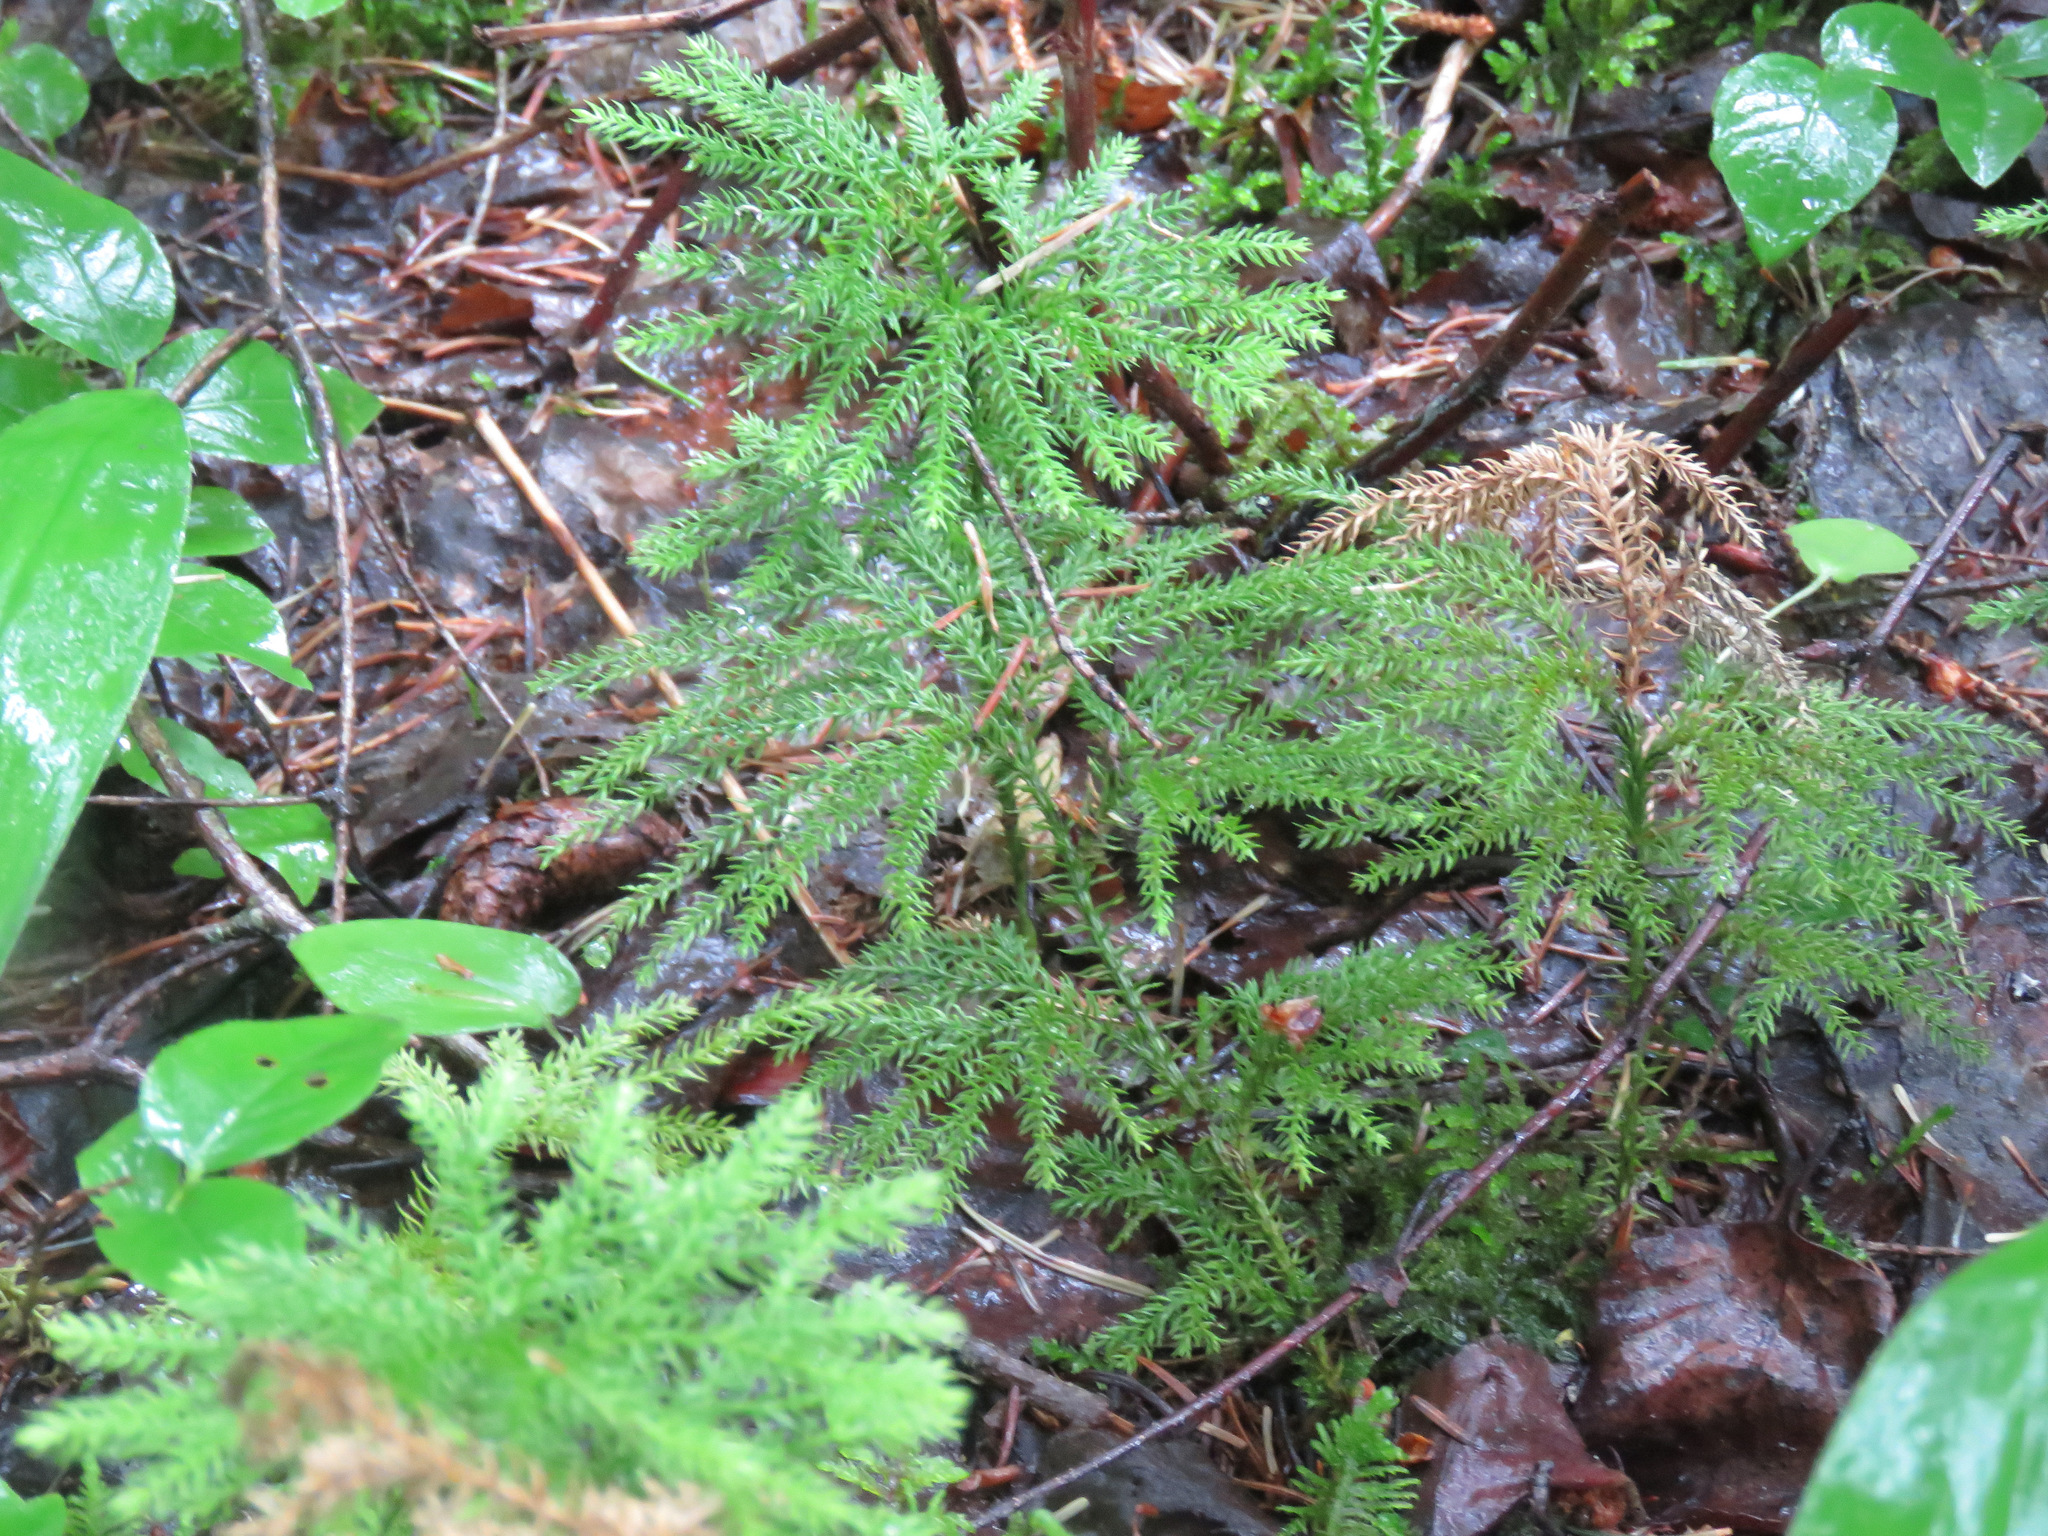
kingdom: Plantae
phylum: Tracheophyta
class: Lycopodiopsida
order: Lycopodiales
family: Lycopodiaceae
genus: Dendrolycopodium
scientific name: Dendrolycopodium dendroideum
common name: Northern tree-clubmoss
